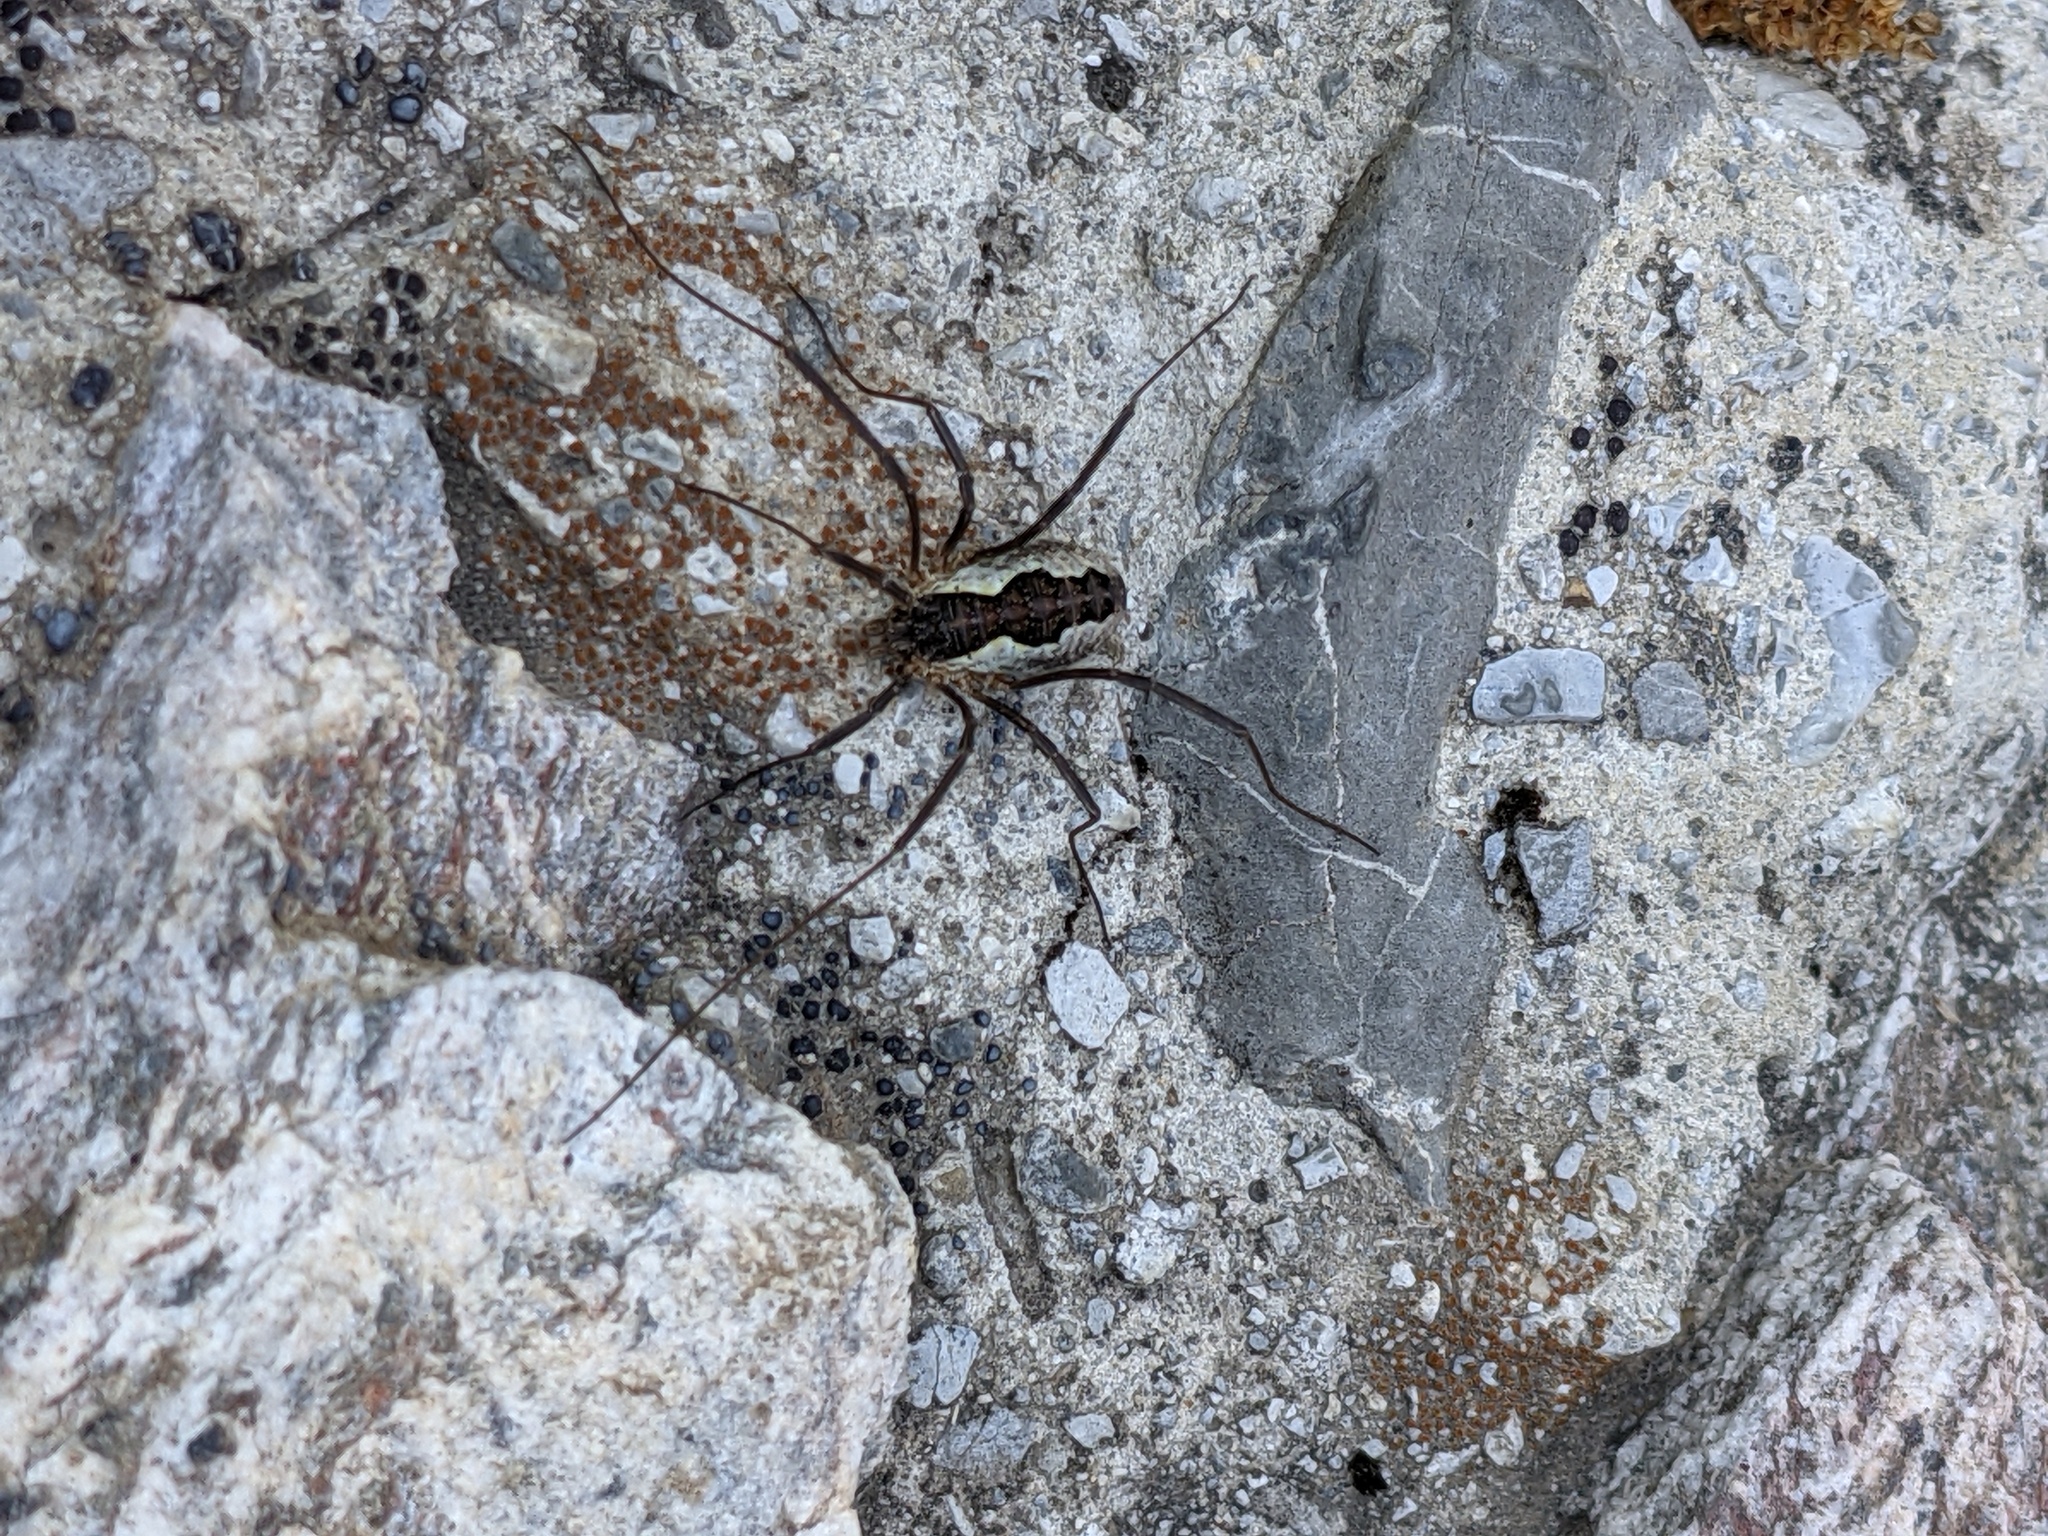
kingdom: Animalia
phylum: Arthropoda
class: Arachnida
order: Opiliones
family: Phalangiidae
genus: Mitopus
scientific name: Mitopus morio
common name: Saddleback harvestman
